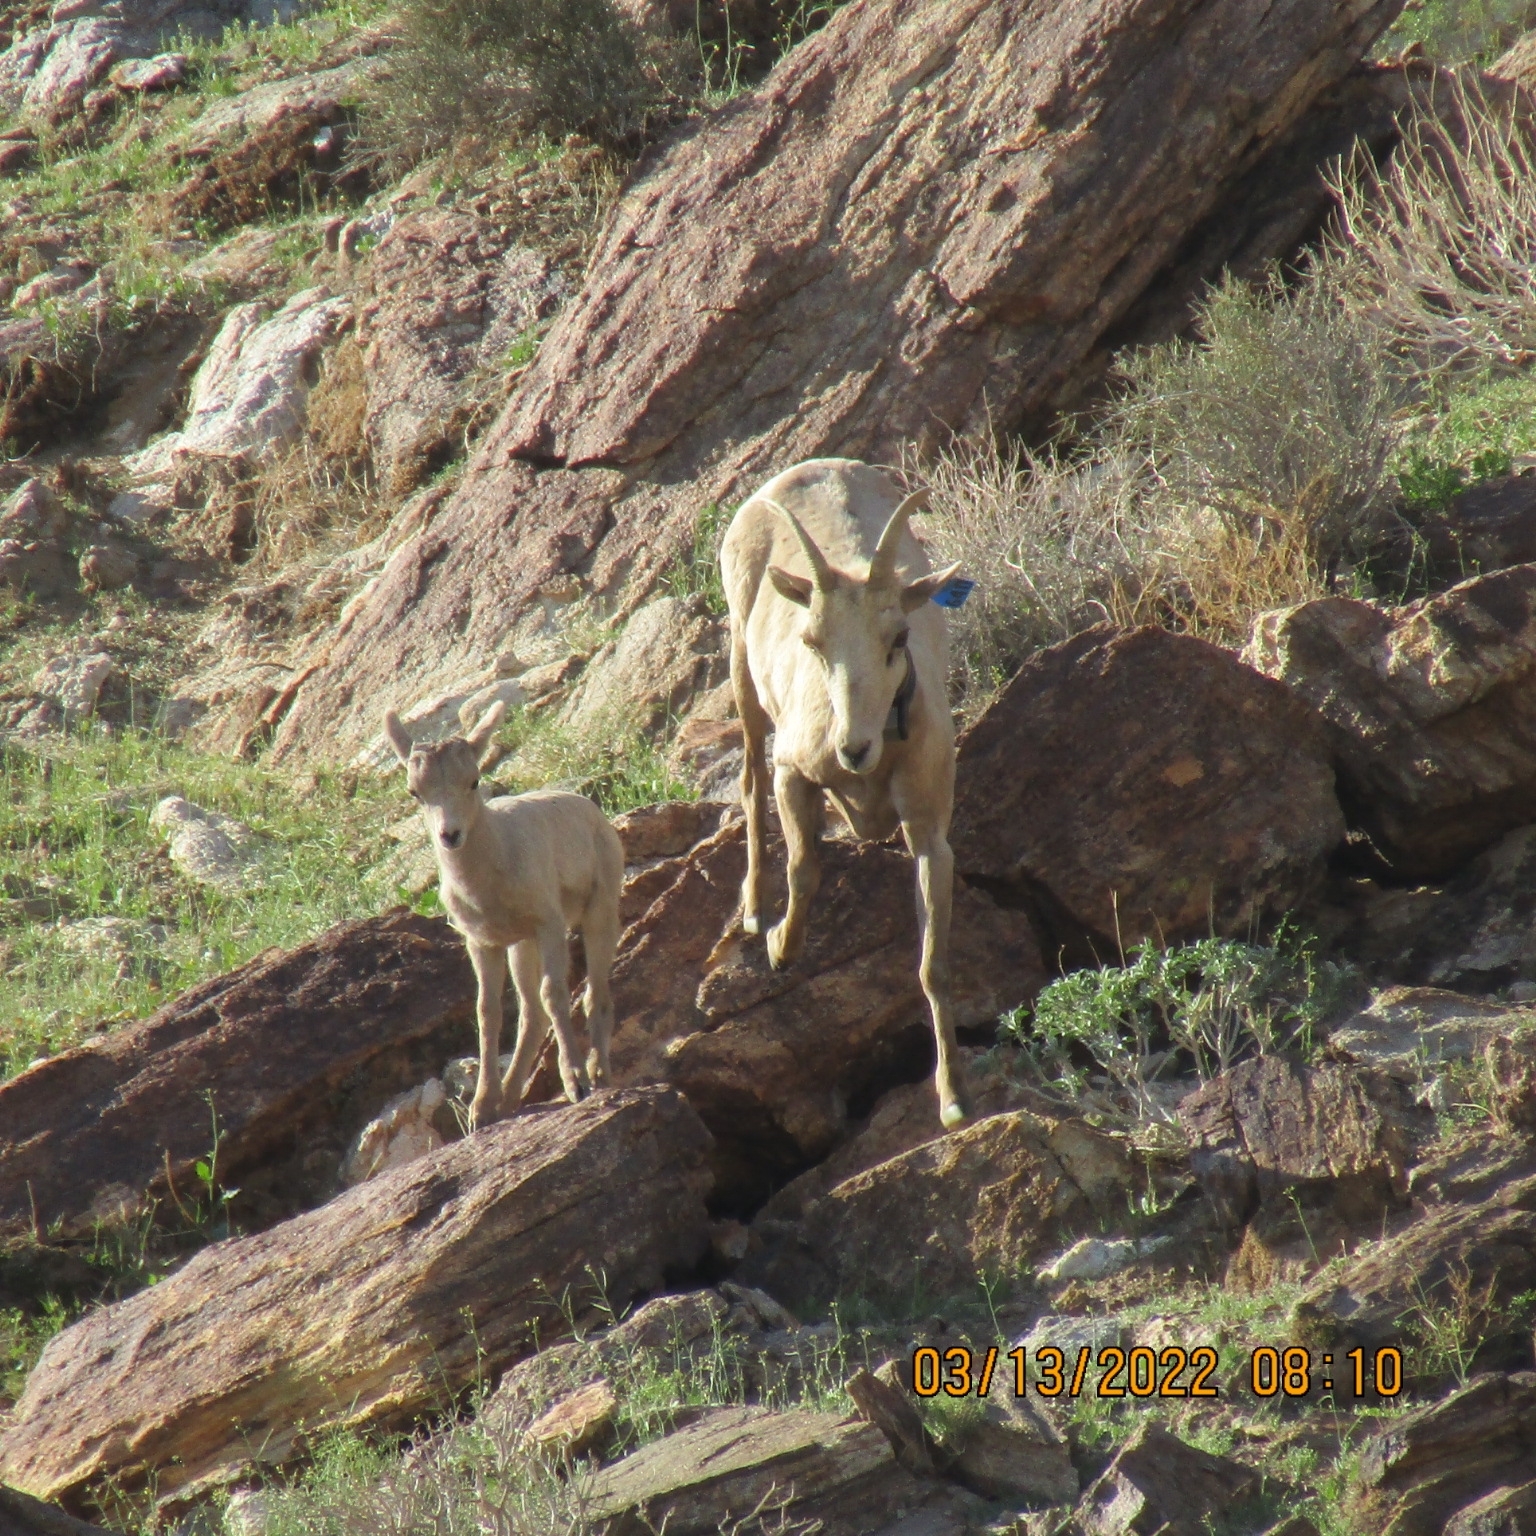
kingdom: Animalia
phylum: Chordata
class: Mammalia
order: Artiodactyla
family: Bovidae
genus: Ovis
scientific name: Ovis canadensis
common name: Bighorn sheep
